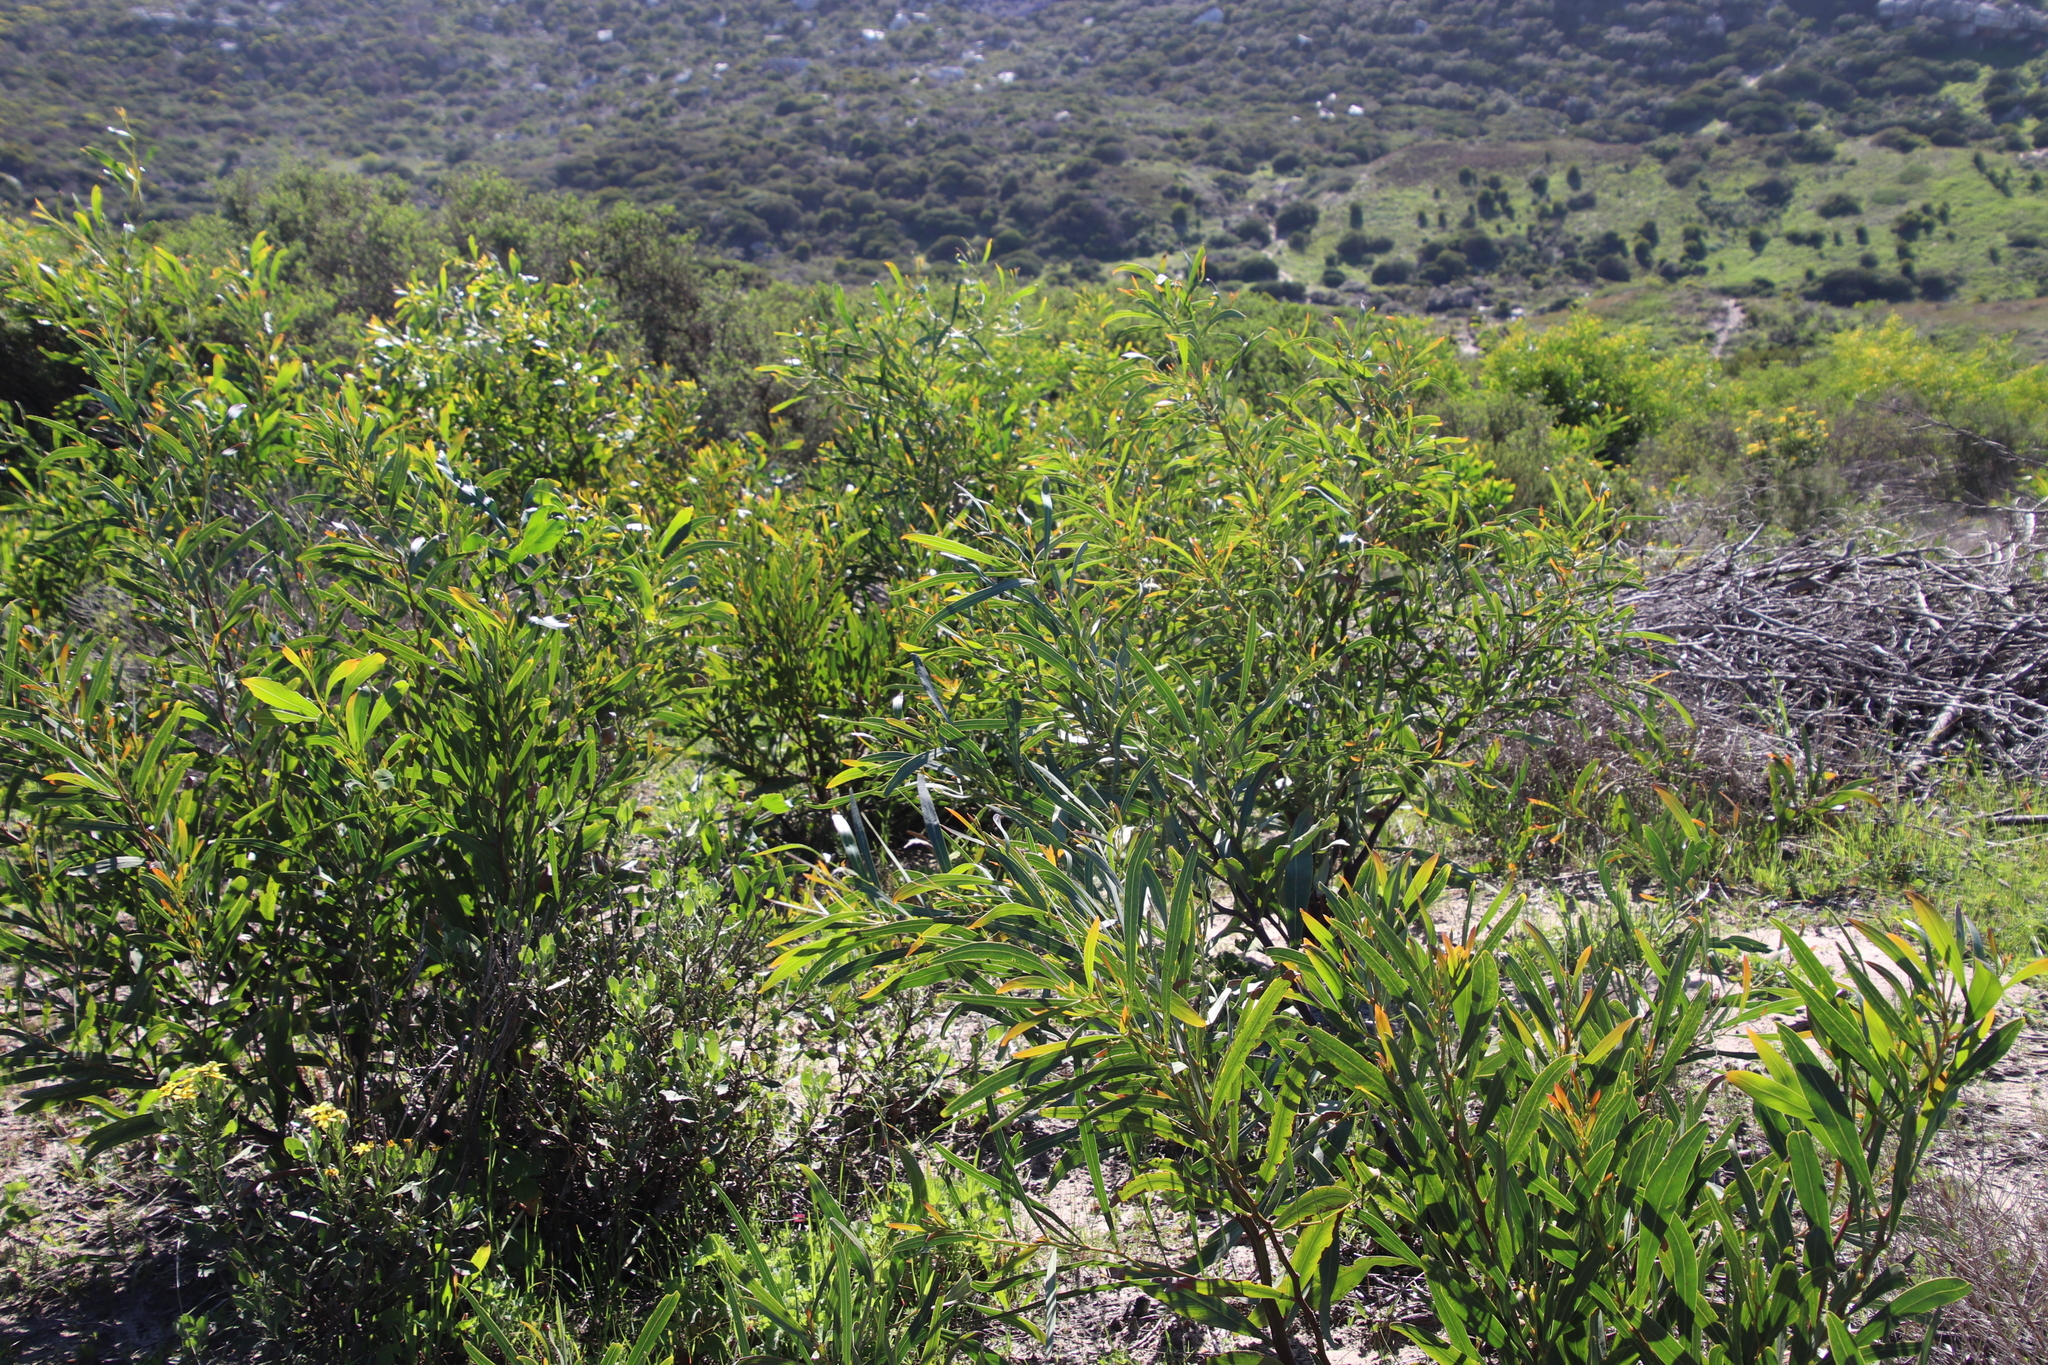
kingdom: Plantae
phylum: Tracheophyta
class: Magnoliopsida
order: Fabales
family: Fabaceae
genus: Acacia
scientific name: Acacia saligna
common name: Orange wattle
